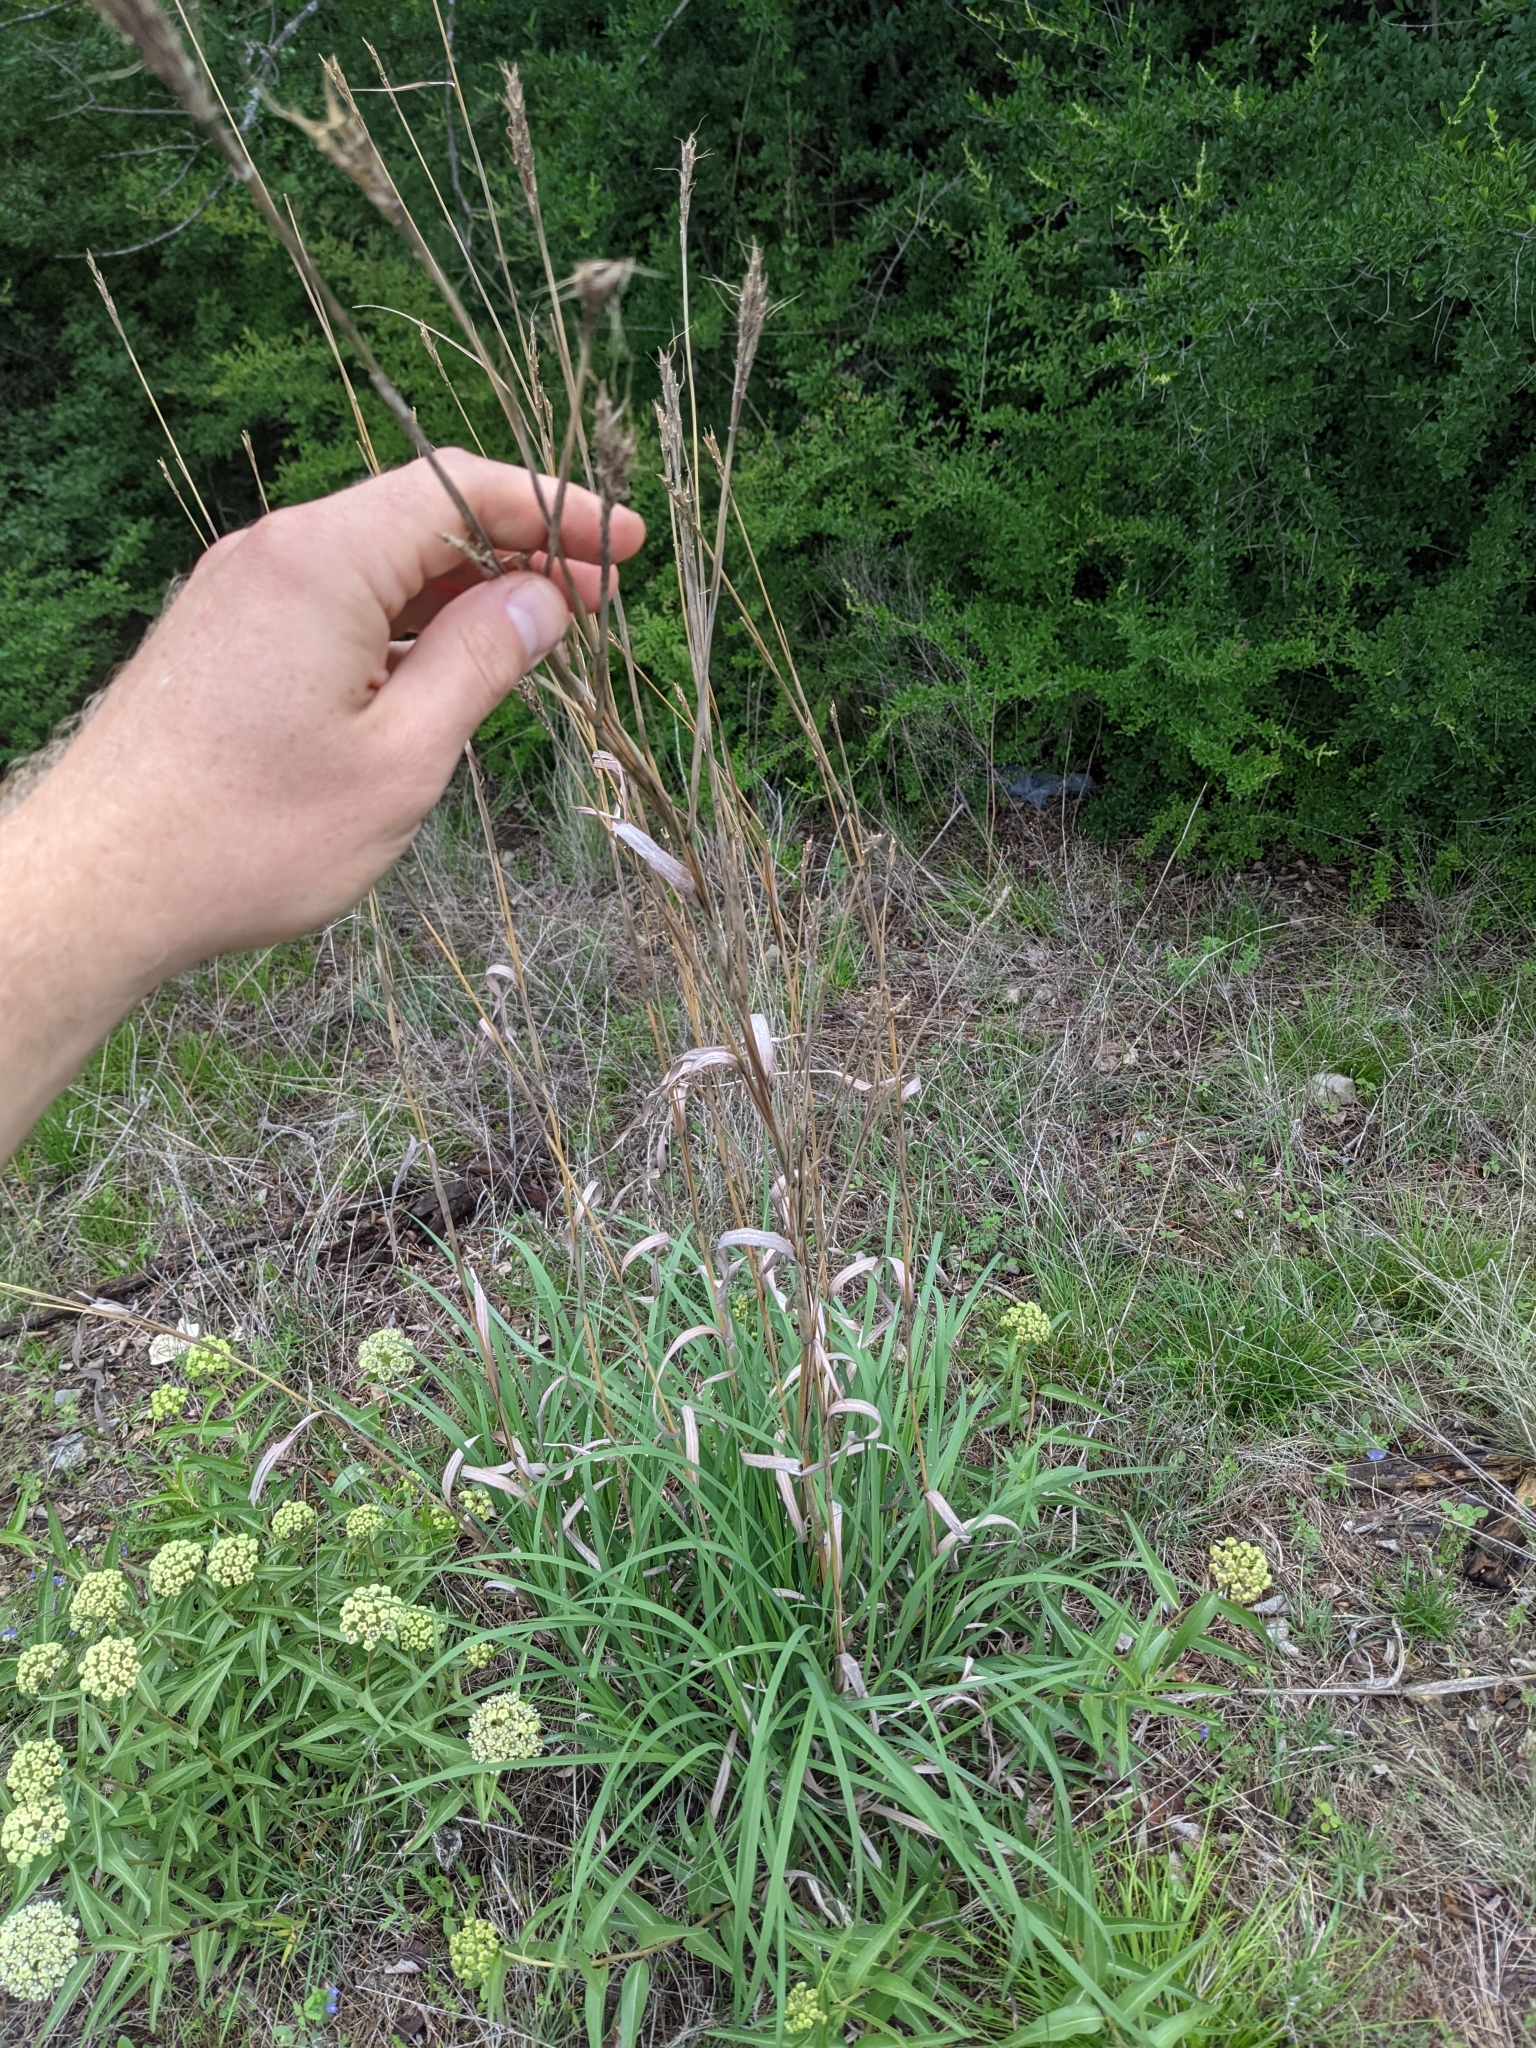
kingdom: Plantae
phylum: Tracheophyta
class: Liliopsida
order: Poales
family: Poaceae
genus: Andropogon
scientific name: Andropogon gerardi
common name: Big bluestem
